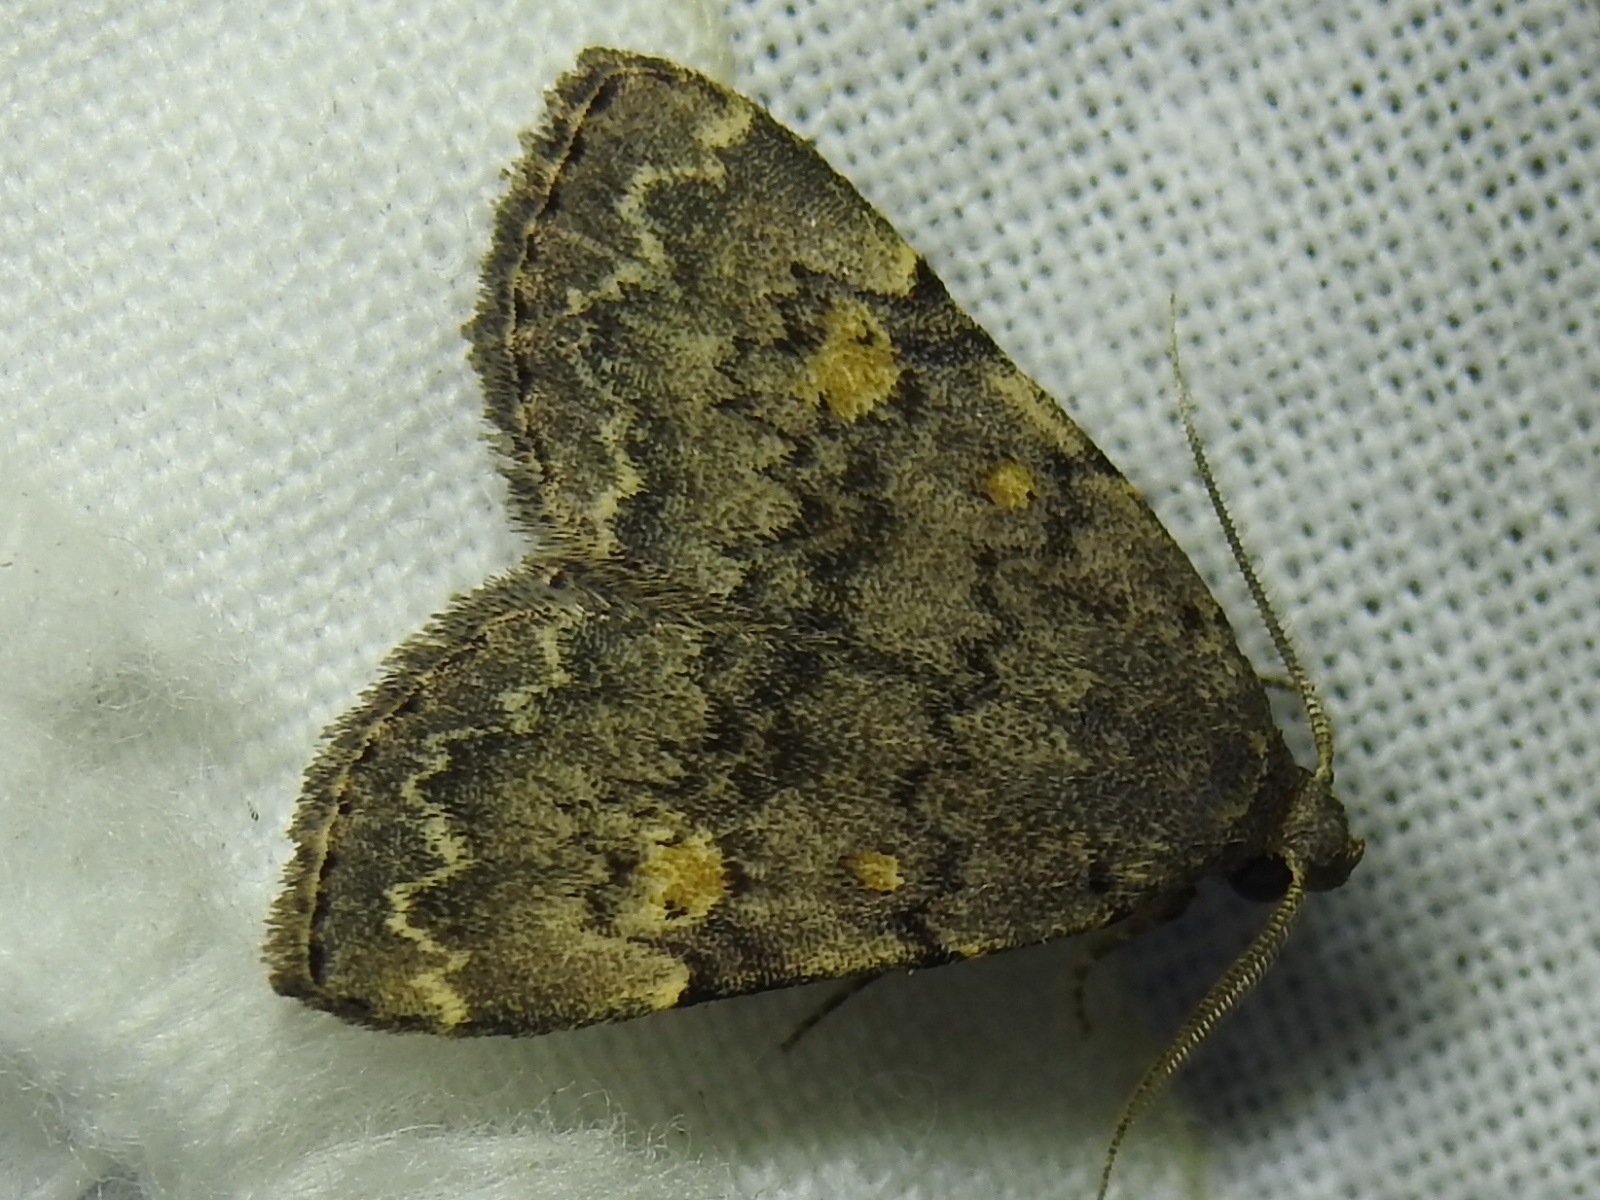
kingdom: Animalia
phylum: Arthropoda
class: Insecta
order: Lepidoptera
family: Erebidae
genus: Idia
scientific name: Idia aemula
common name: Common idia moth
